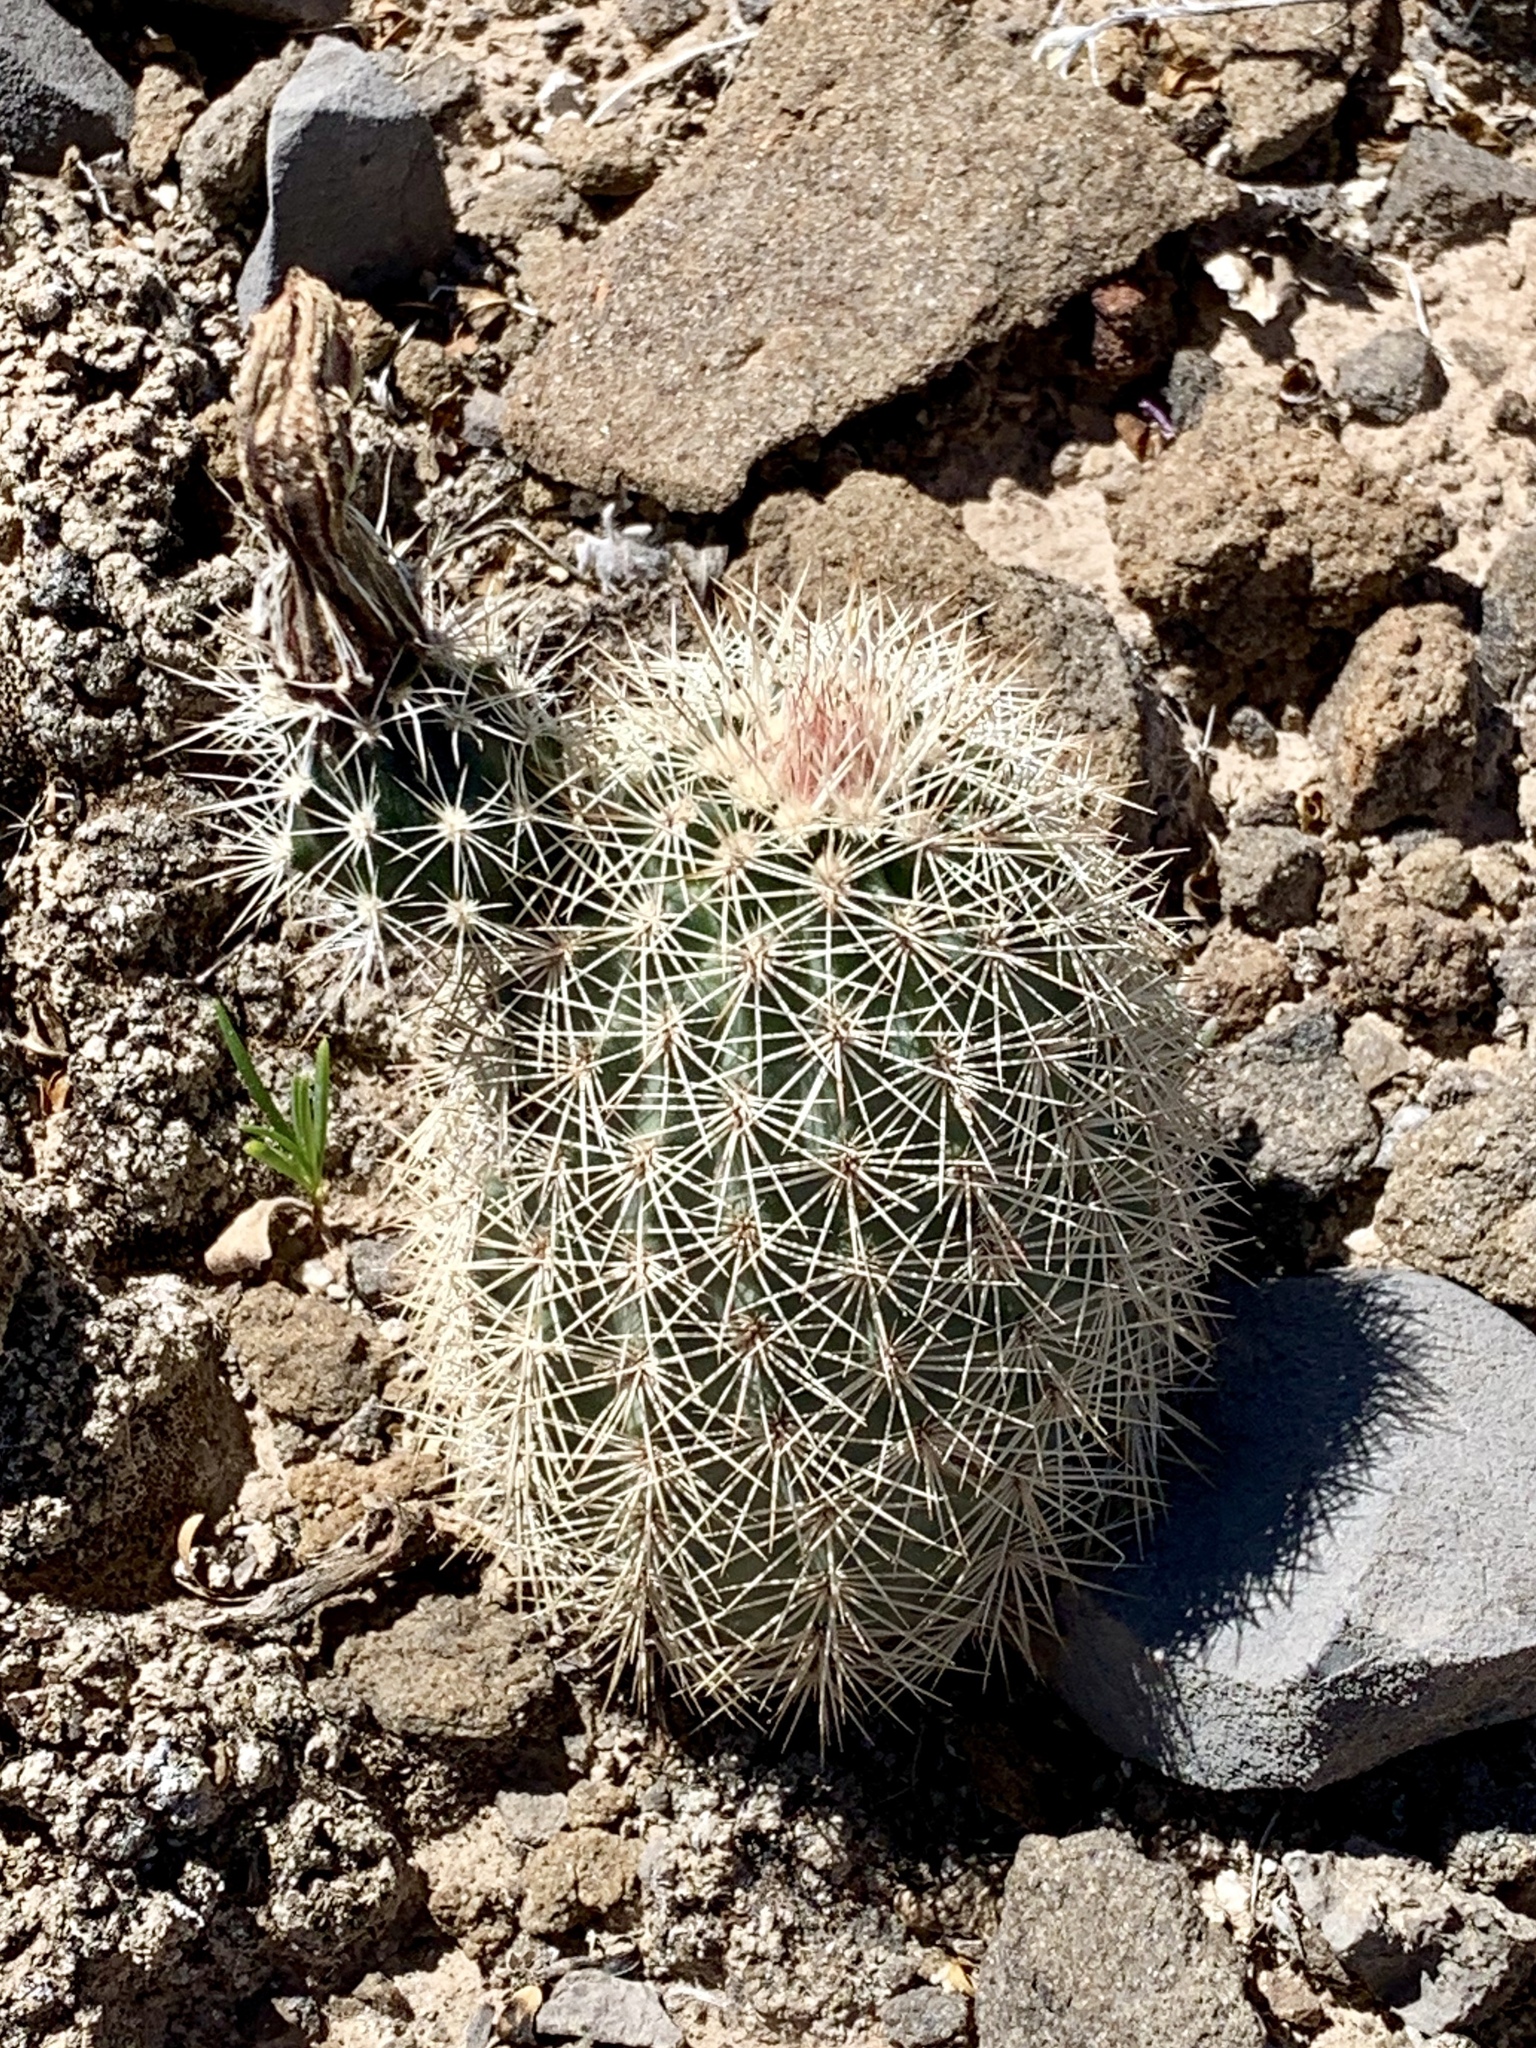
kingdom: Plantae
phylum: Tracheophyta
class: Magnoliopsida
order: Caryophyllales
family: Cactaceae
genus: Echinocereus
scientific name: Echinocereus dasyacanthus
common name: Spiny hedgehog cactus
